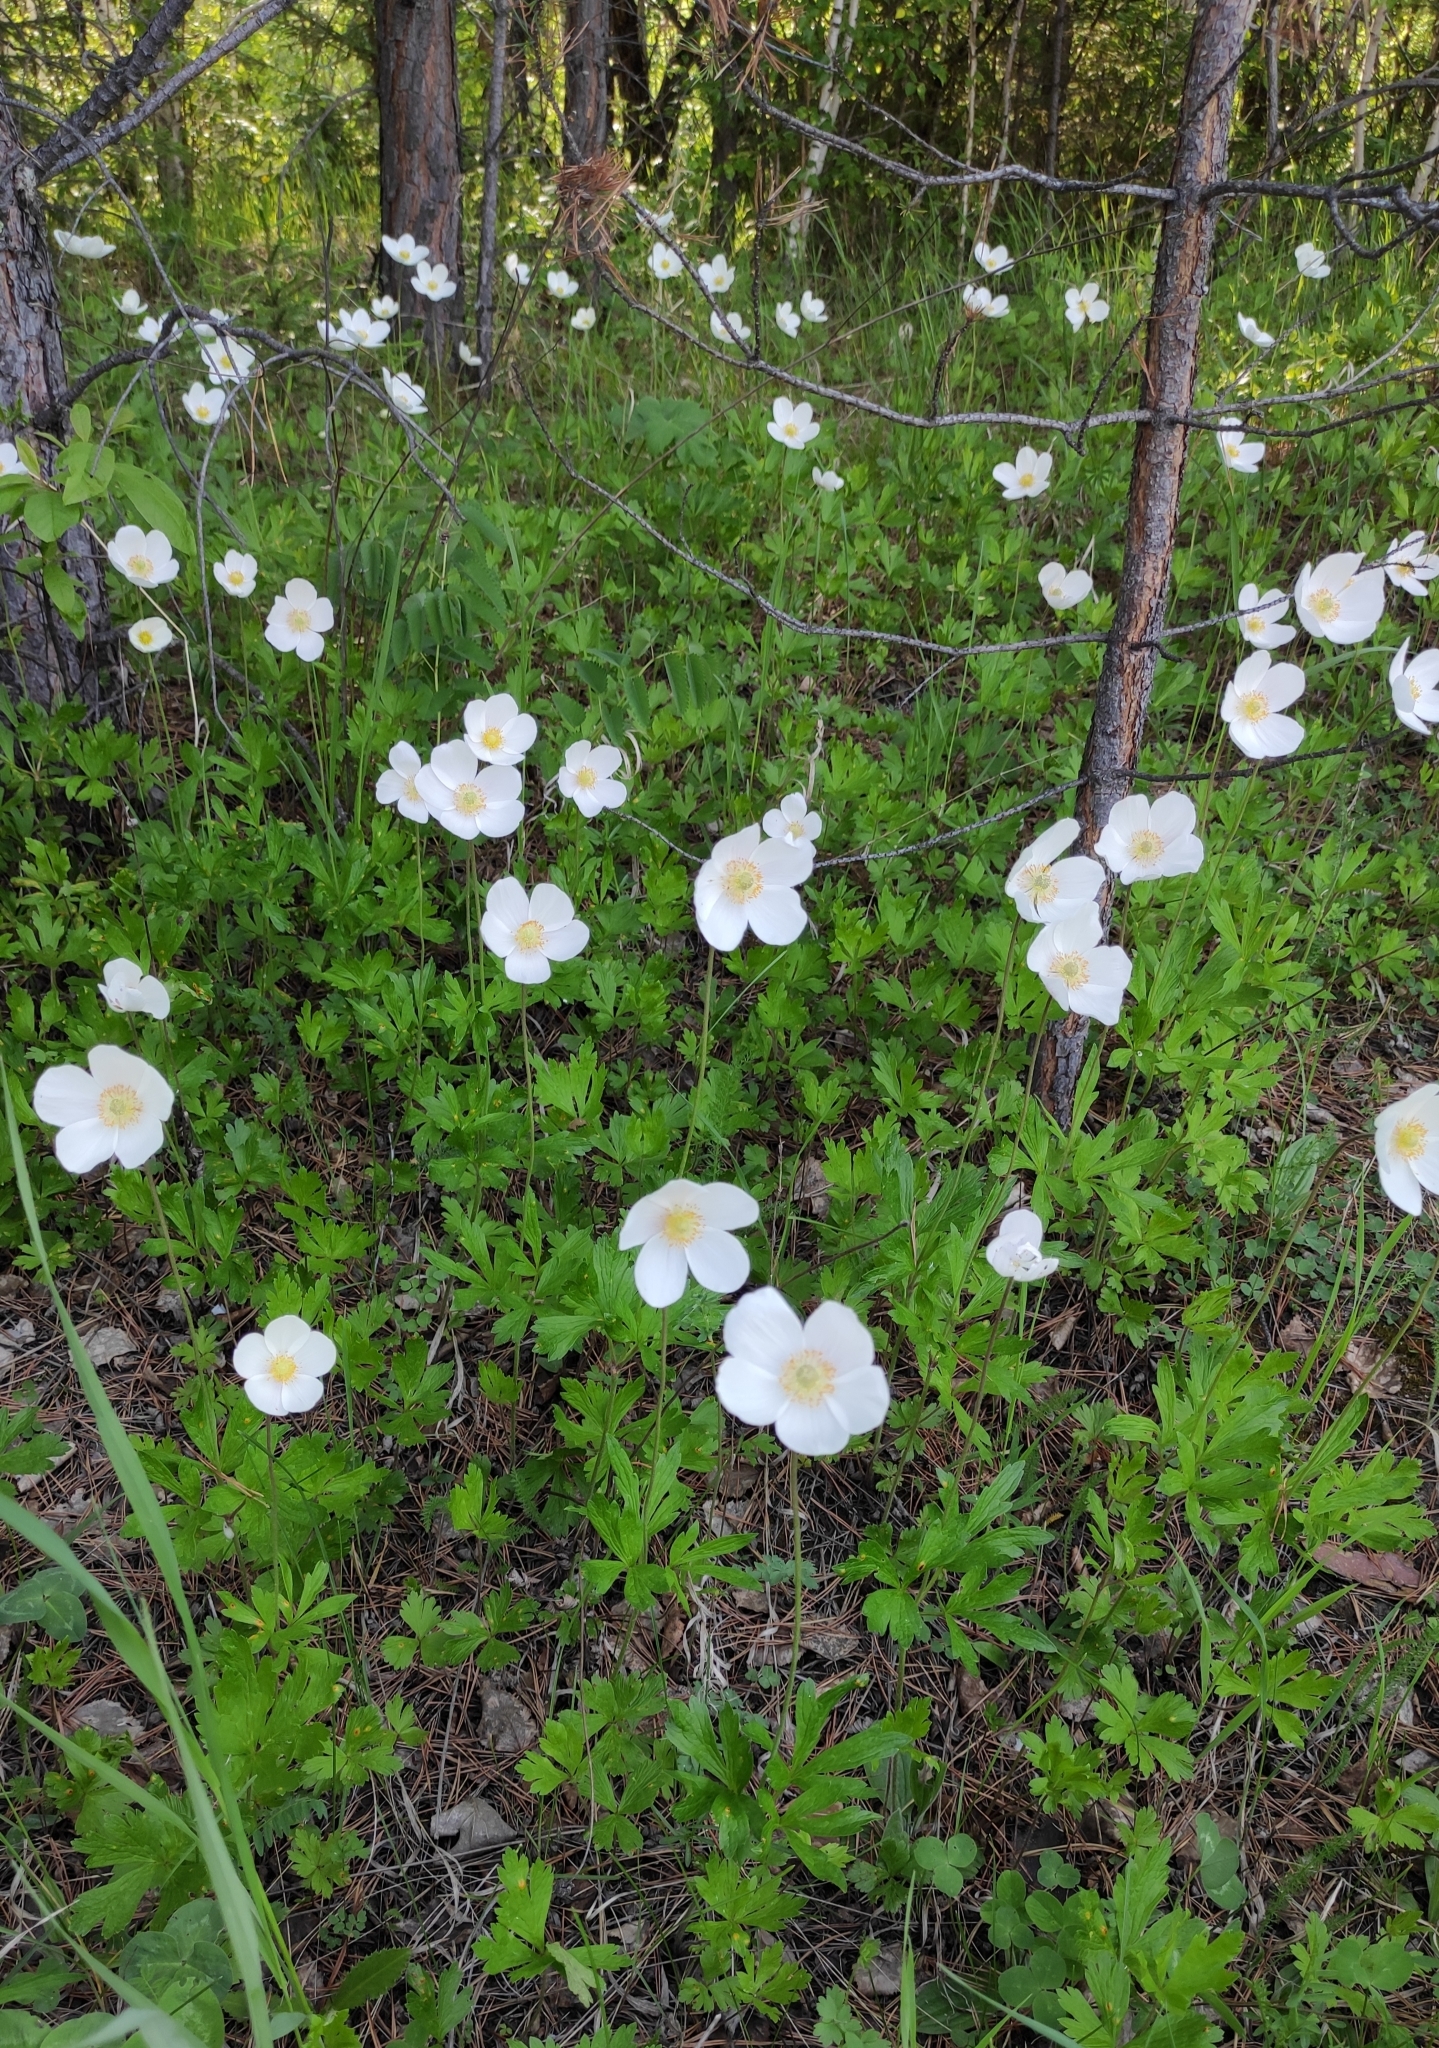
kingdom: Plantae
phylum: Tracheophyta
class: Magnoliopsida
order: Ranunculales
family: Ranunculaceae
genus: Anemone
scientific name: Anemone sylvestris
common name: Snowdrop anemone
